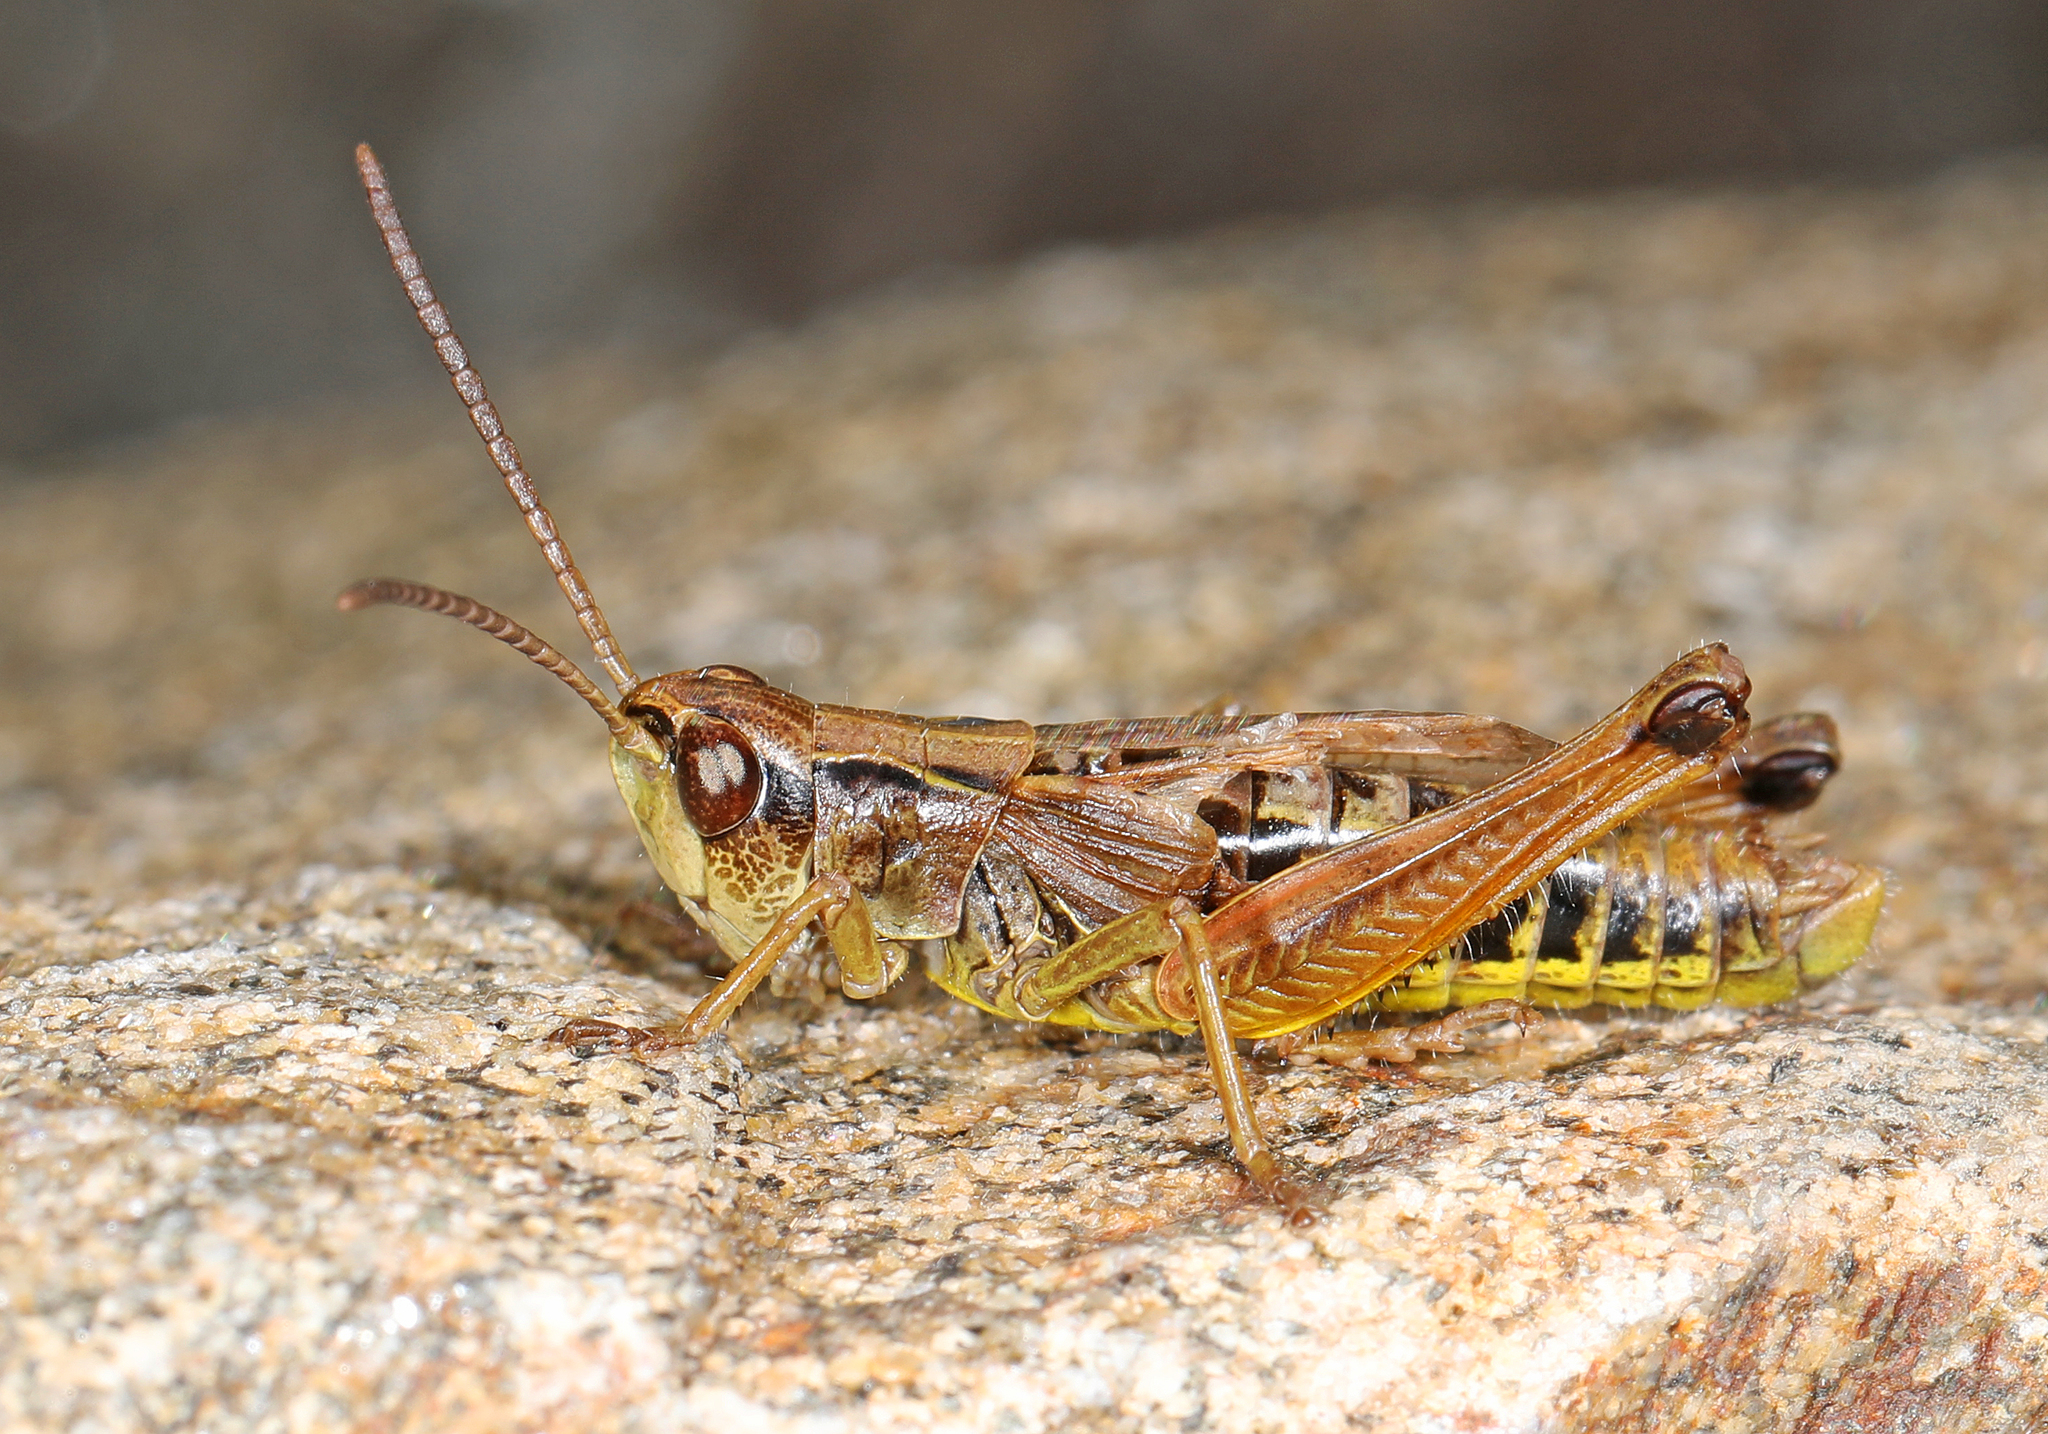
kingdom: Animalia
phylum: Arthropoda
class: Insecta
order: Orthoptera
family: Acrididae
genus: Pseudochorthippus
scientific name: Pseudochorthippus curtipennis
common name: Marsh meadow grasshopper
